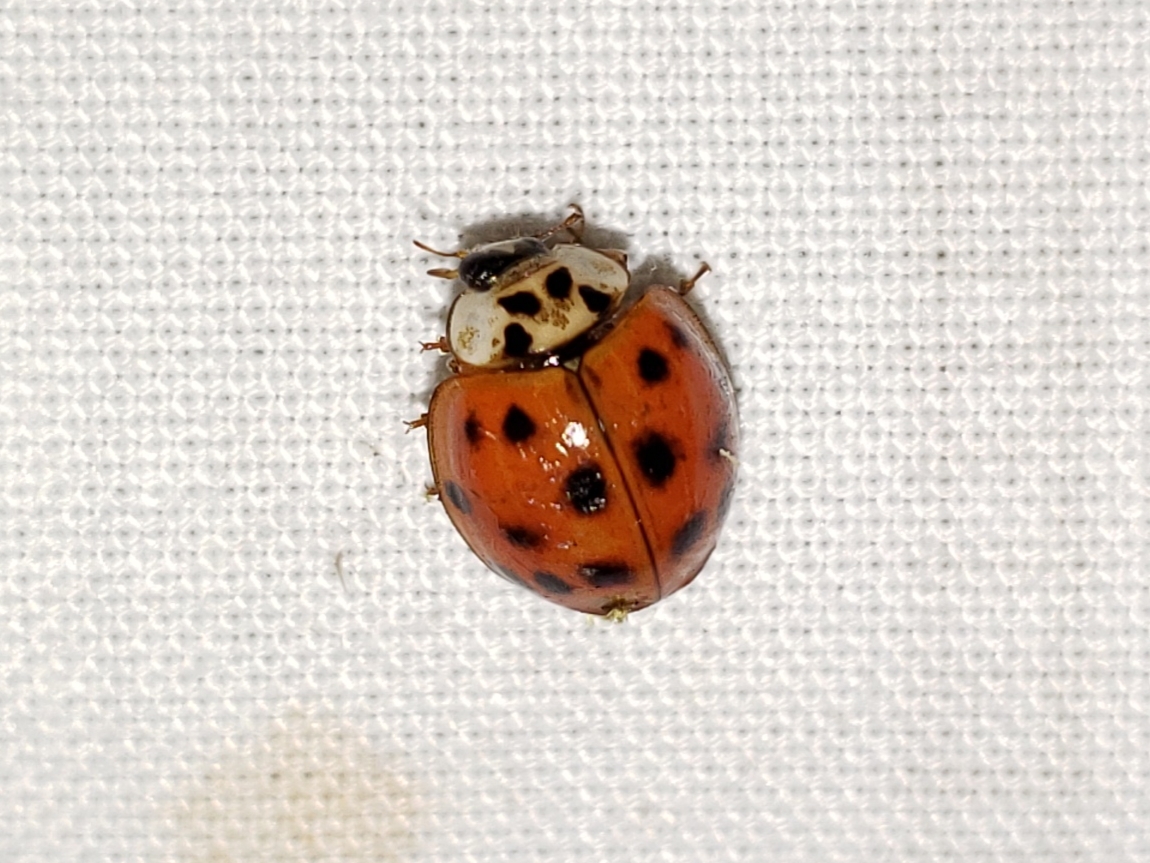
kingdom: Animalia
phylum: Arthropoda
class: Insecta
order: Coleoptera
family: Coccinellidae
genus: Harmonia
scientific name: Harmonia axyridis
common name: Harlequin ladybird
